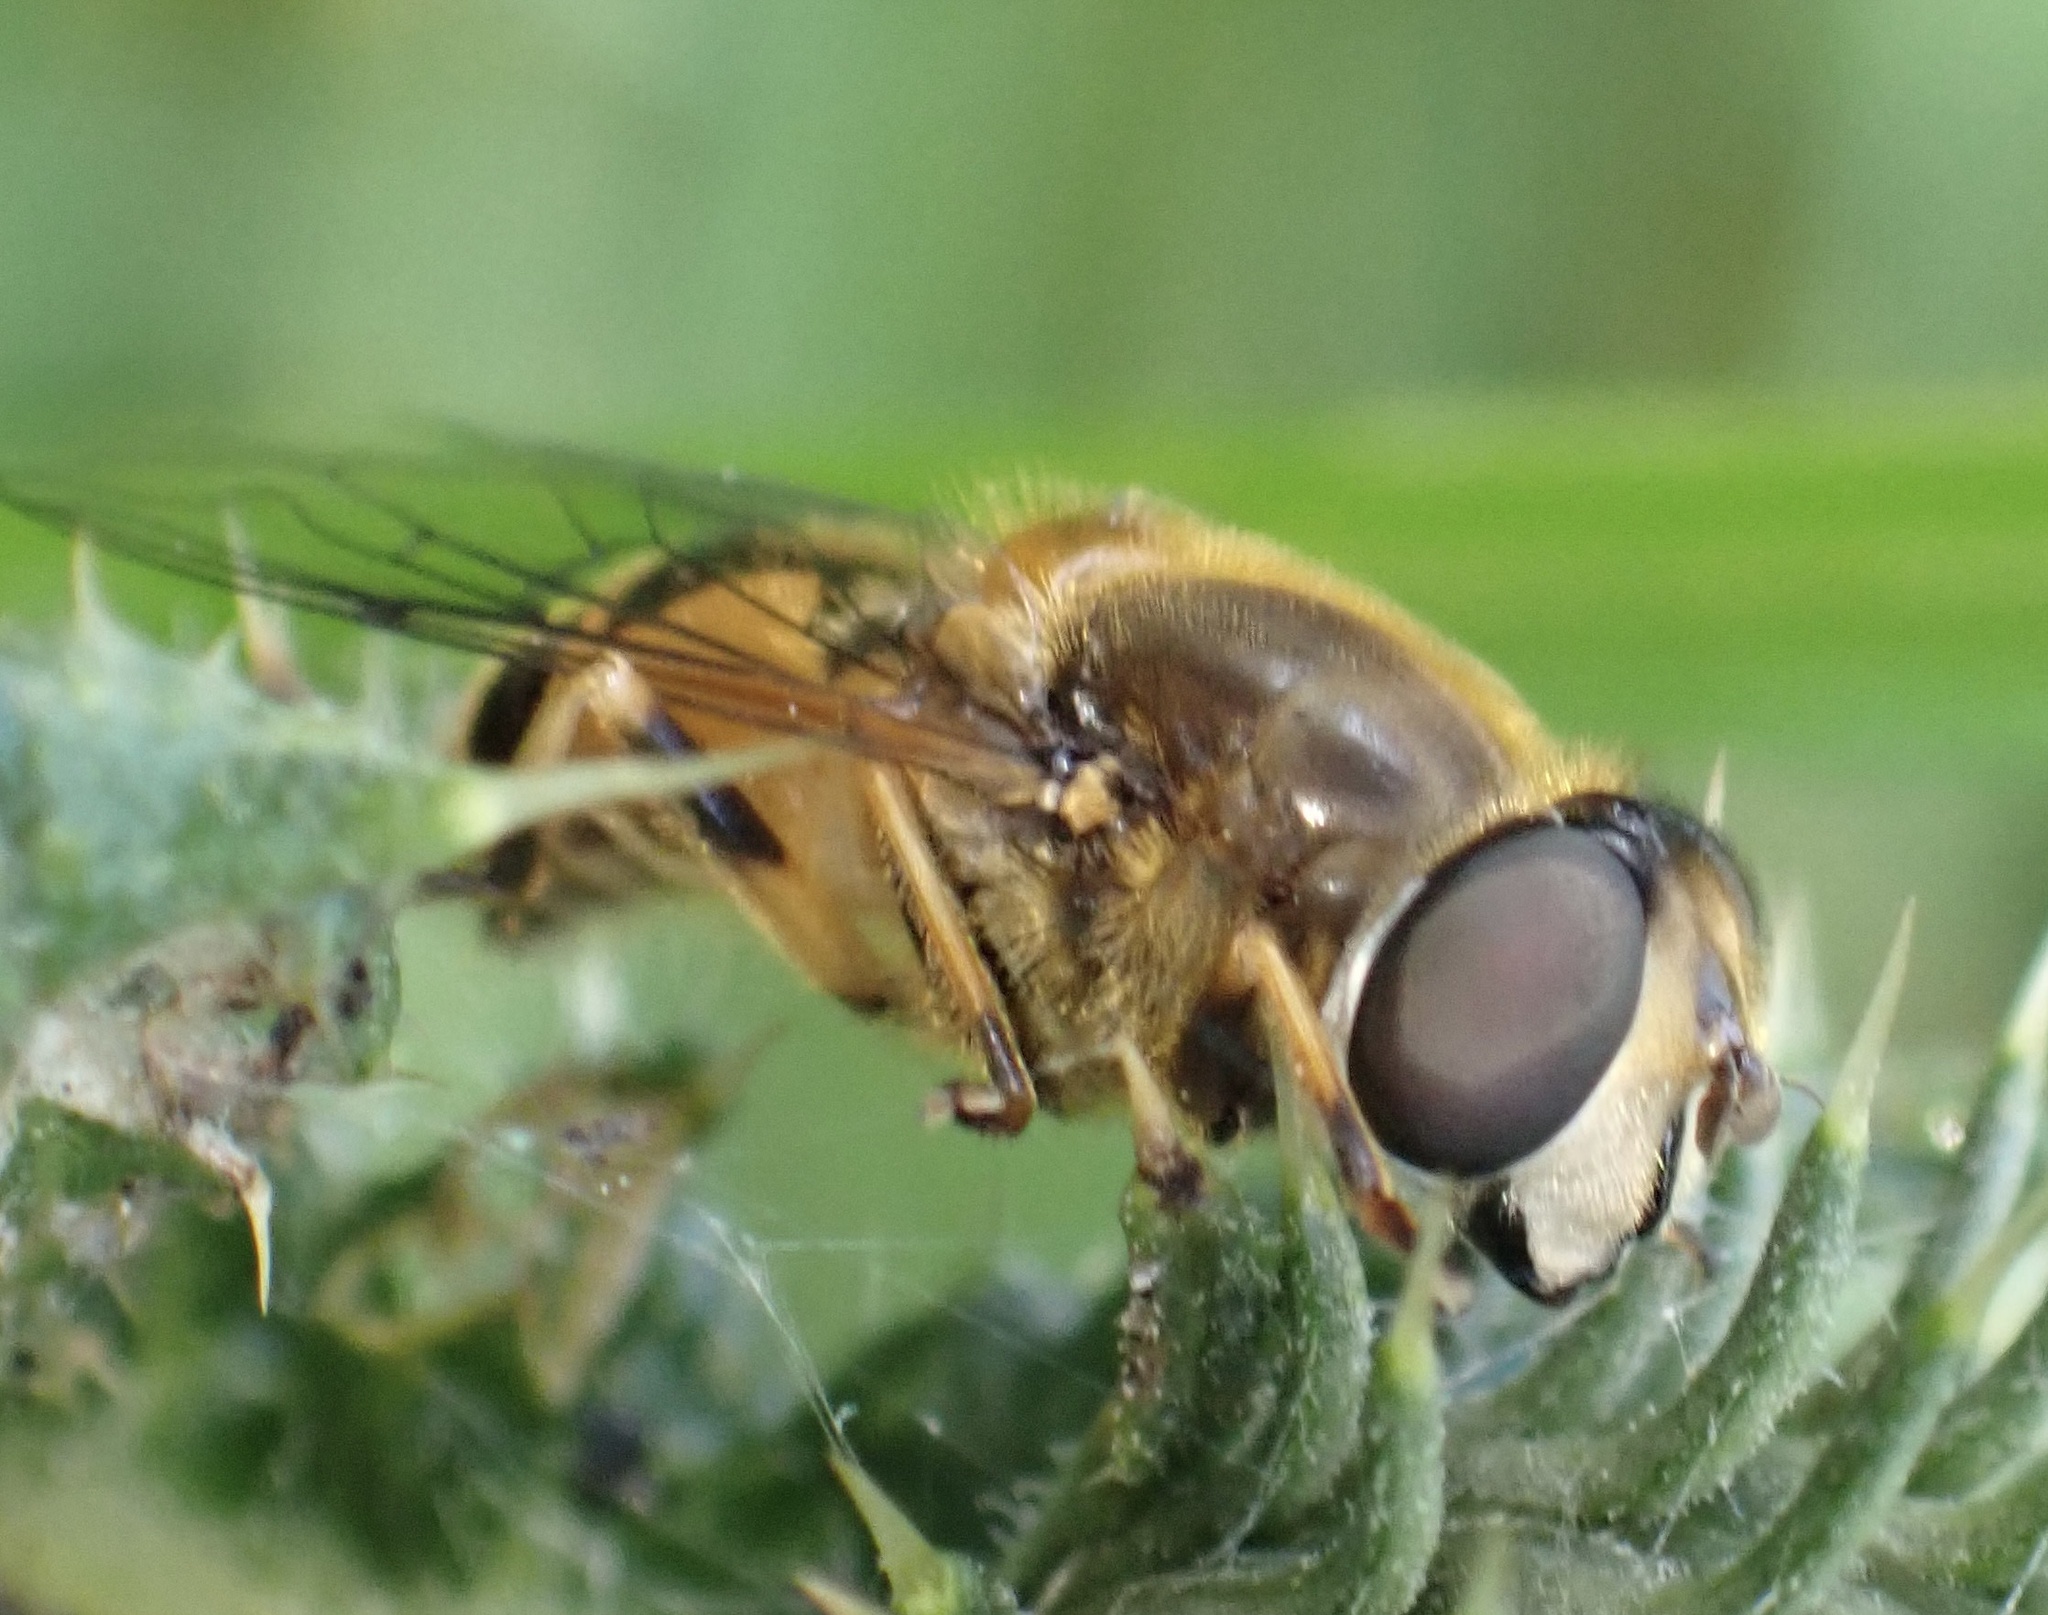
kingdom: Animalia
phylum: Arthropoda
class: Insecta
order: Diptera
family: Syrphidae
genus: Eristalis
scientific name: Eristalis nemorum
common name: Orange-spined drone fly
